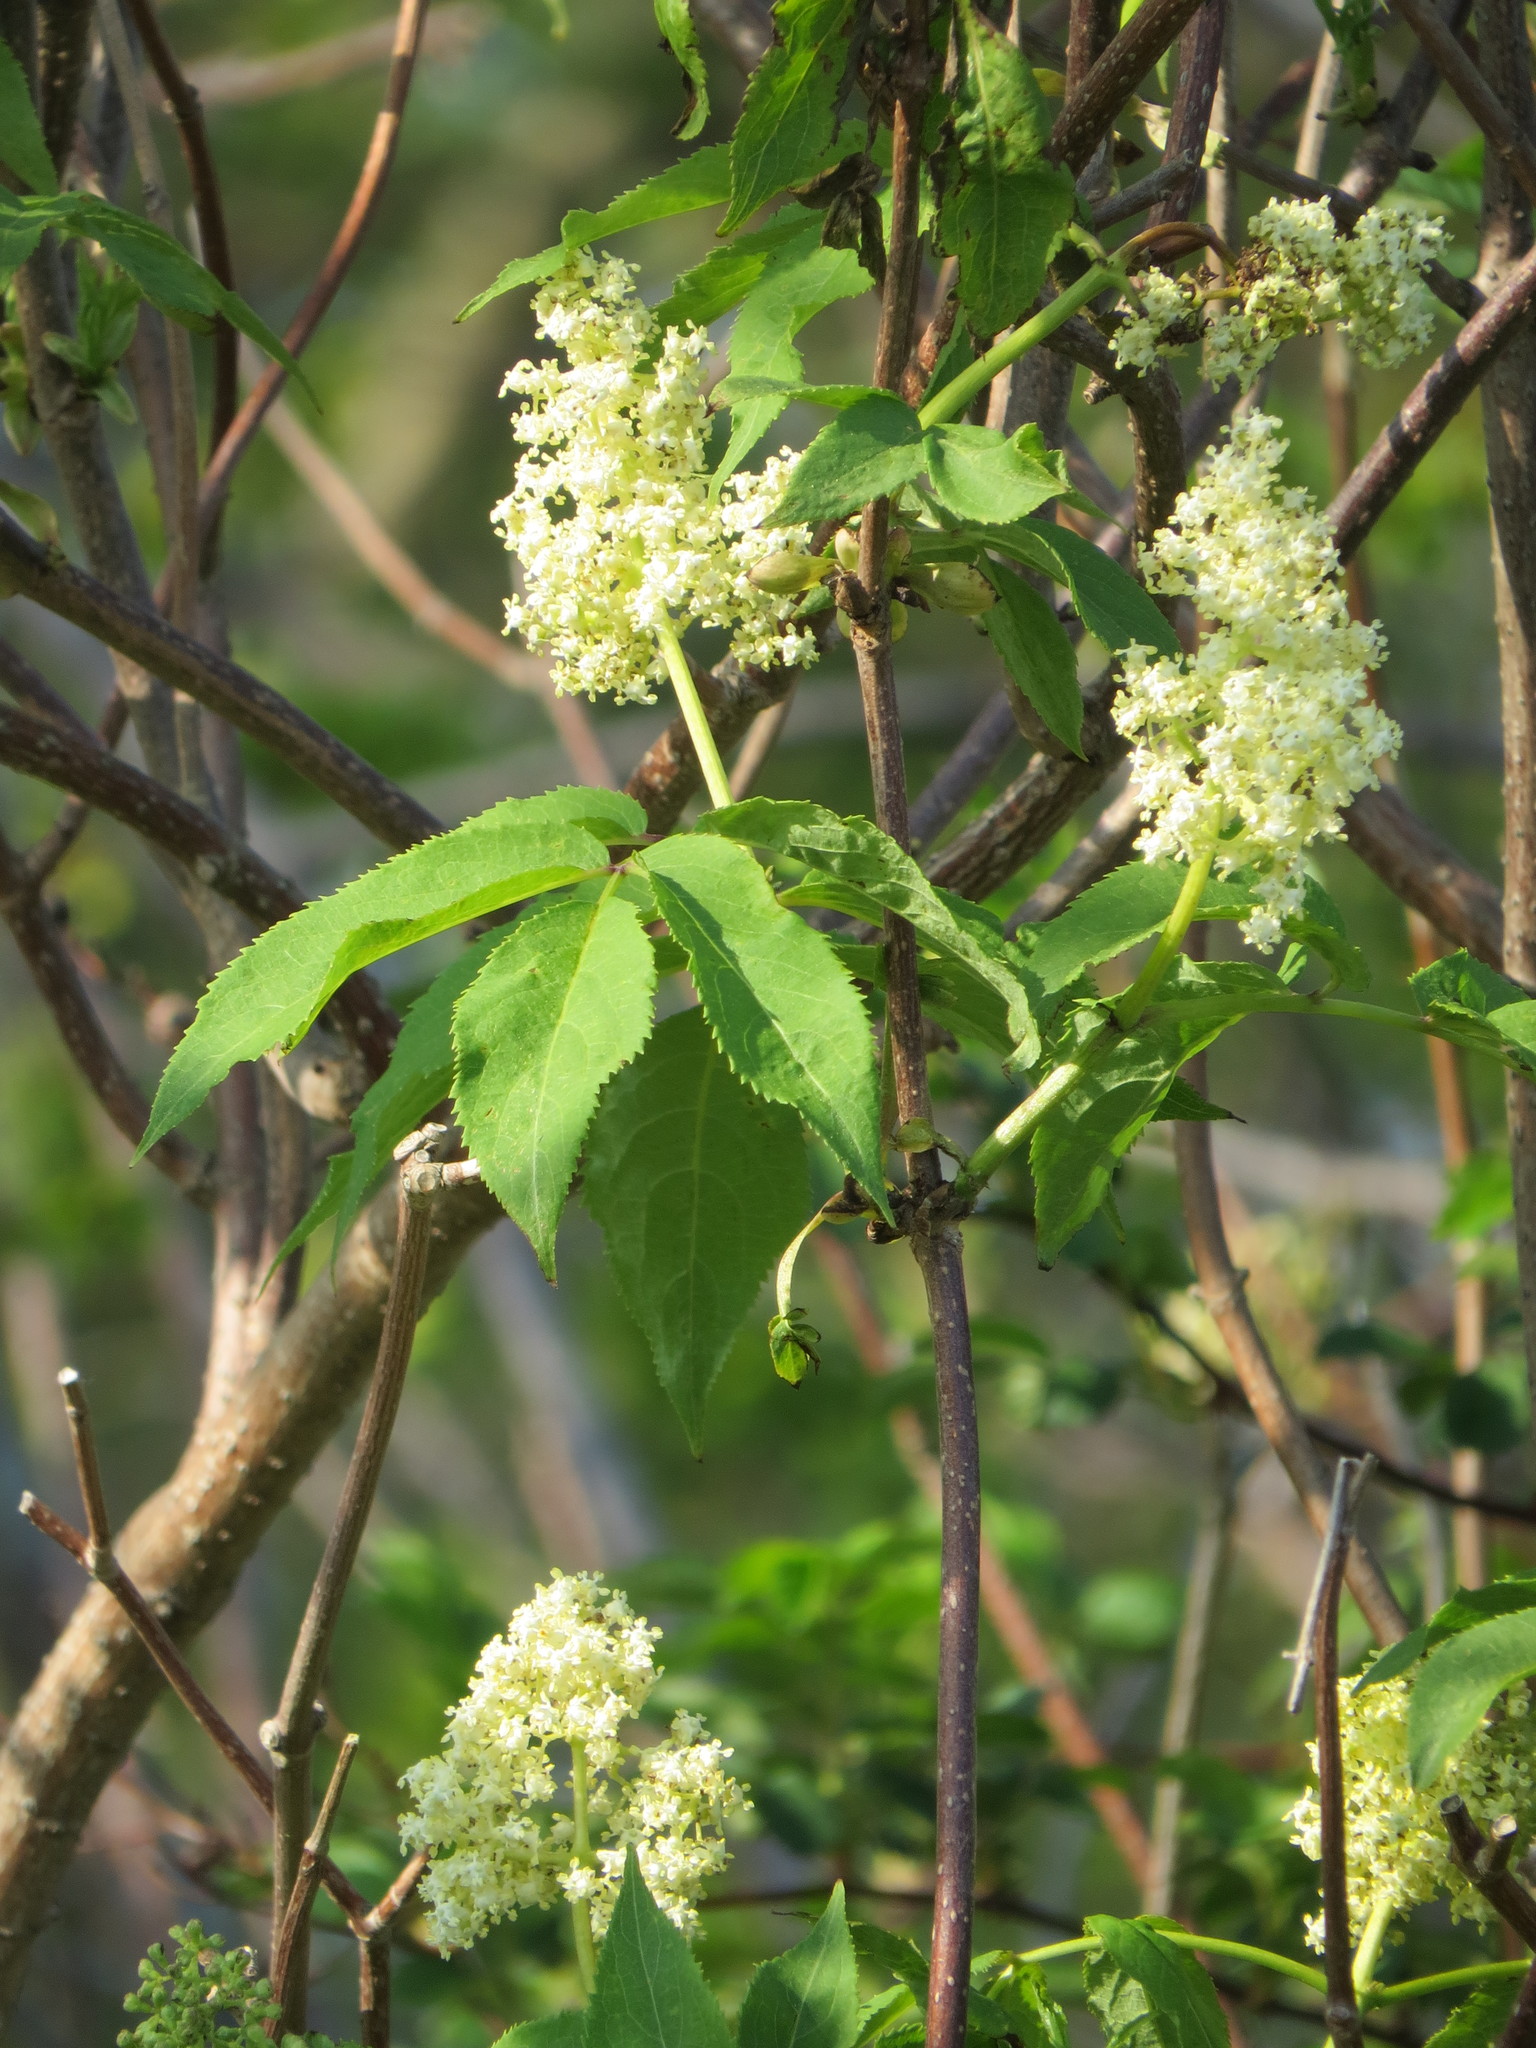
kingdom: Plantae
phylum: Tracheophyta
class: Magnoliopsida
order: Dipsacales
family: Viburnaceae
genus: Sambucus
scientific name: Sambucus racemosa
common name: Red-berried elder
